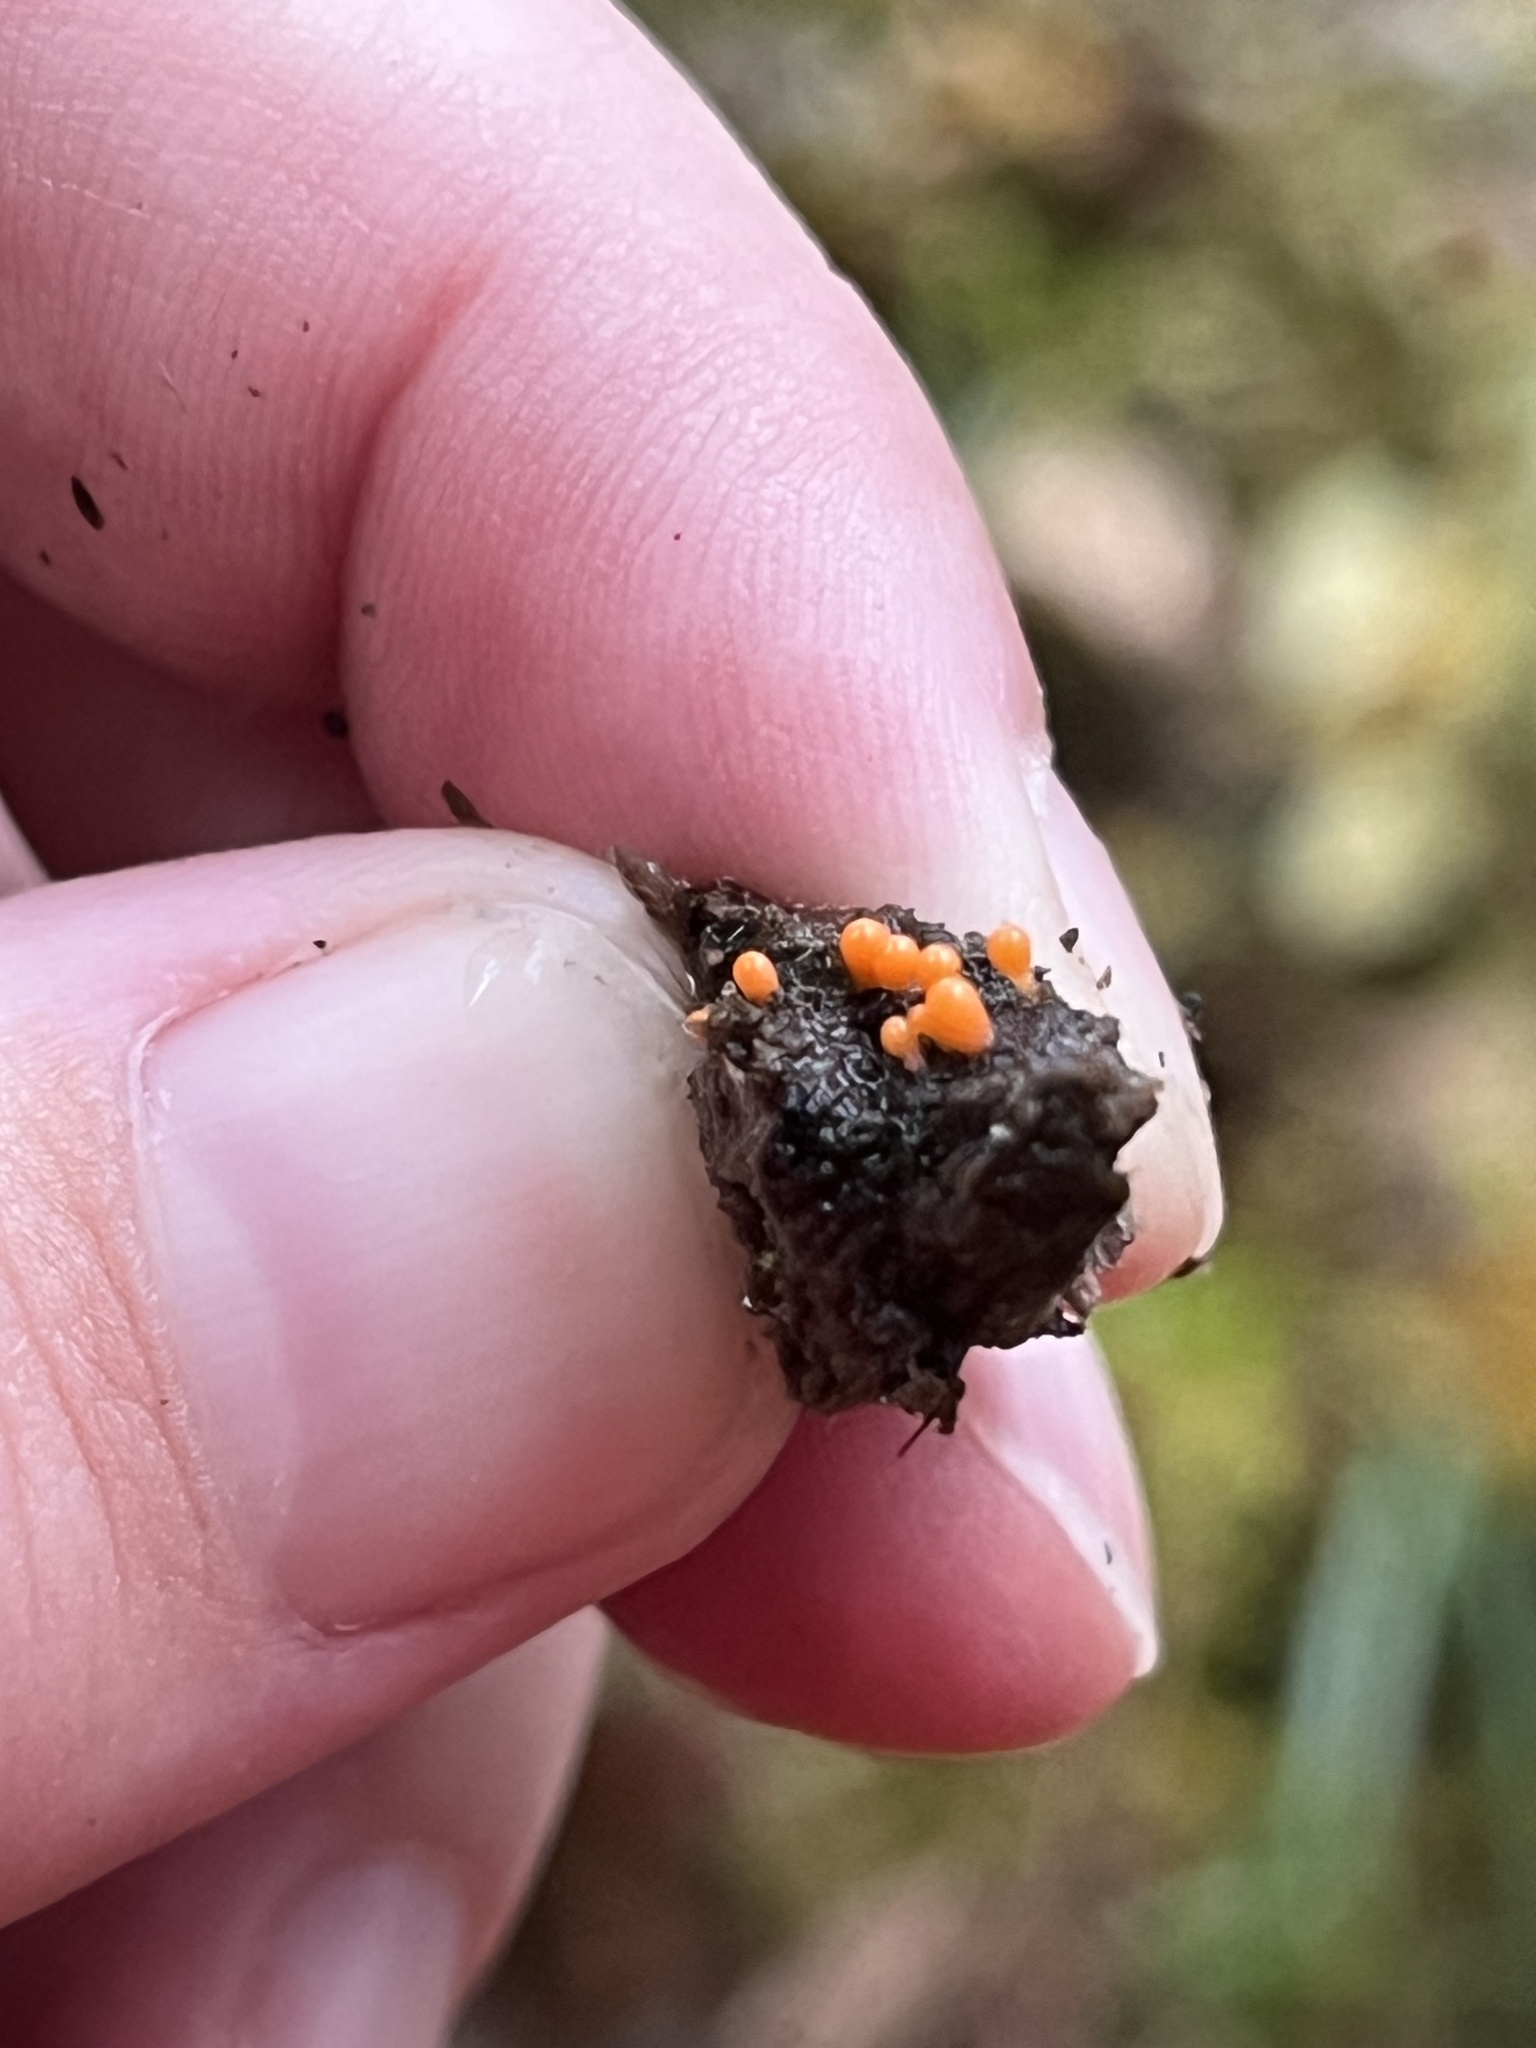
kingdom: Protozoa
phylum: Mycetozoa
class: Myxomycetes
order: Trichiales
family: Arcyriaceae
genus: Hemitrichia
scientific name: Hemitrichia decipiens
